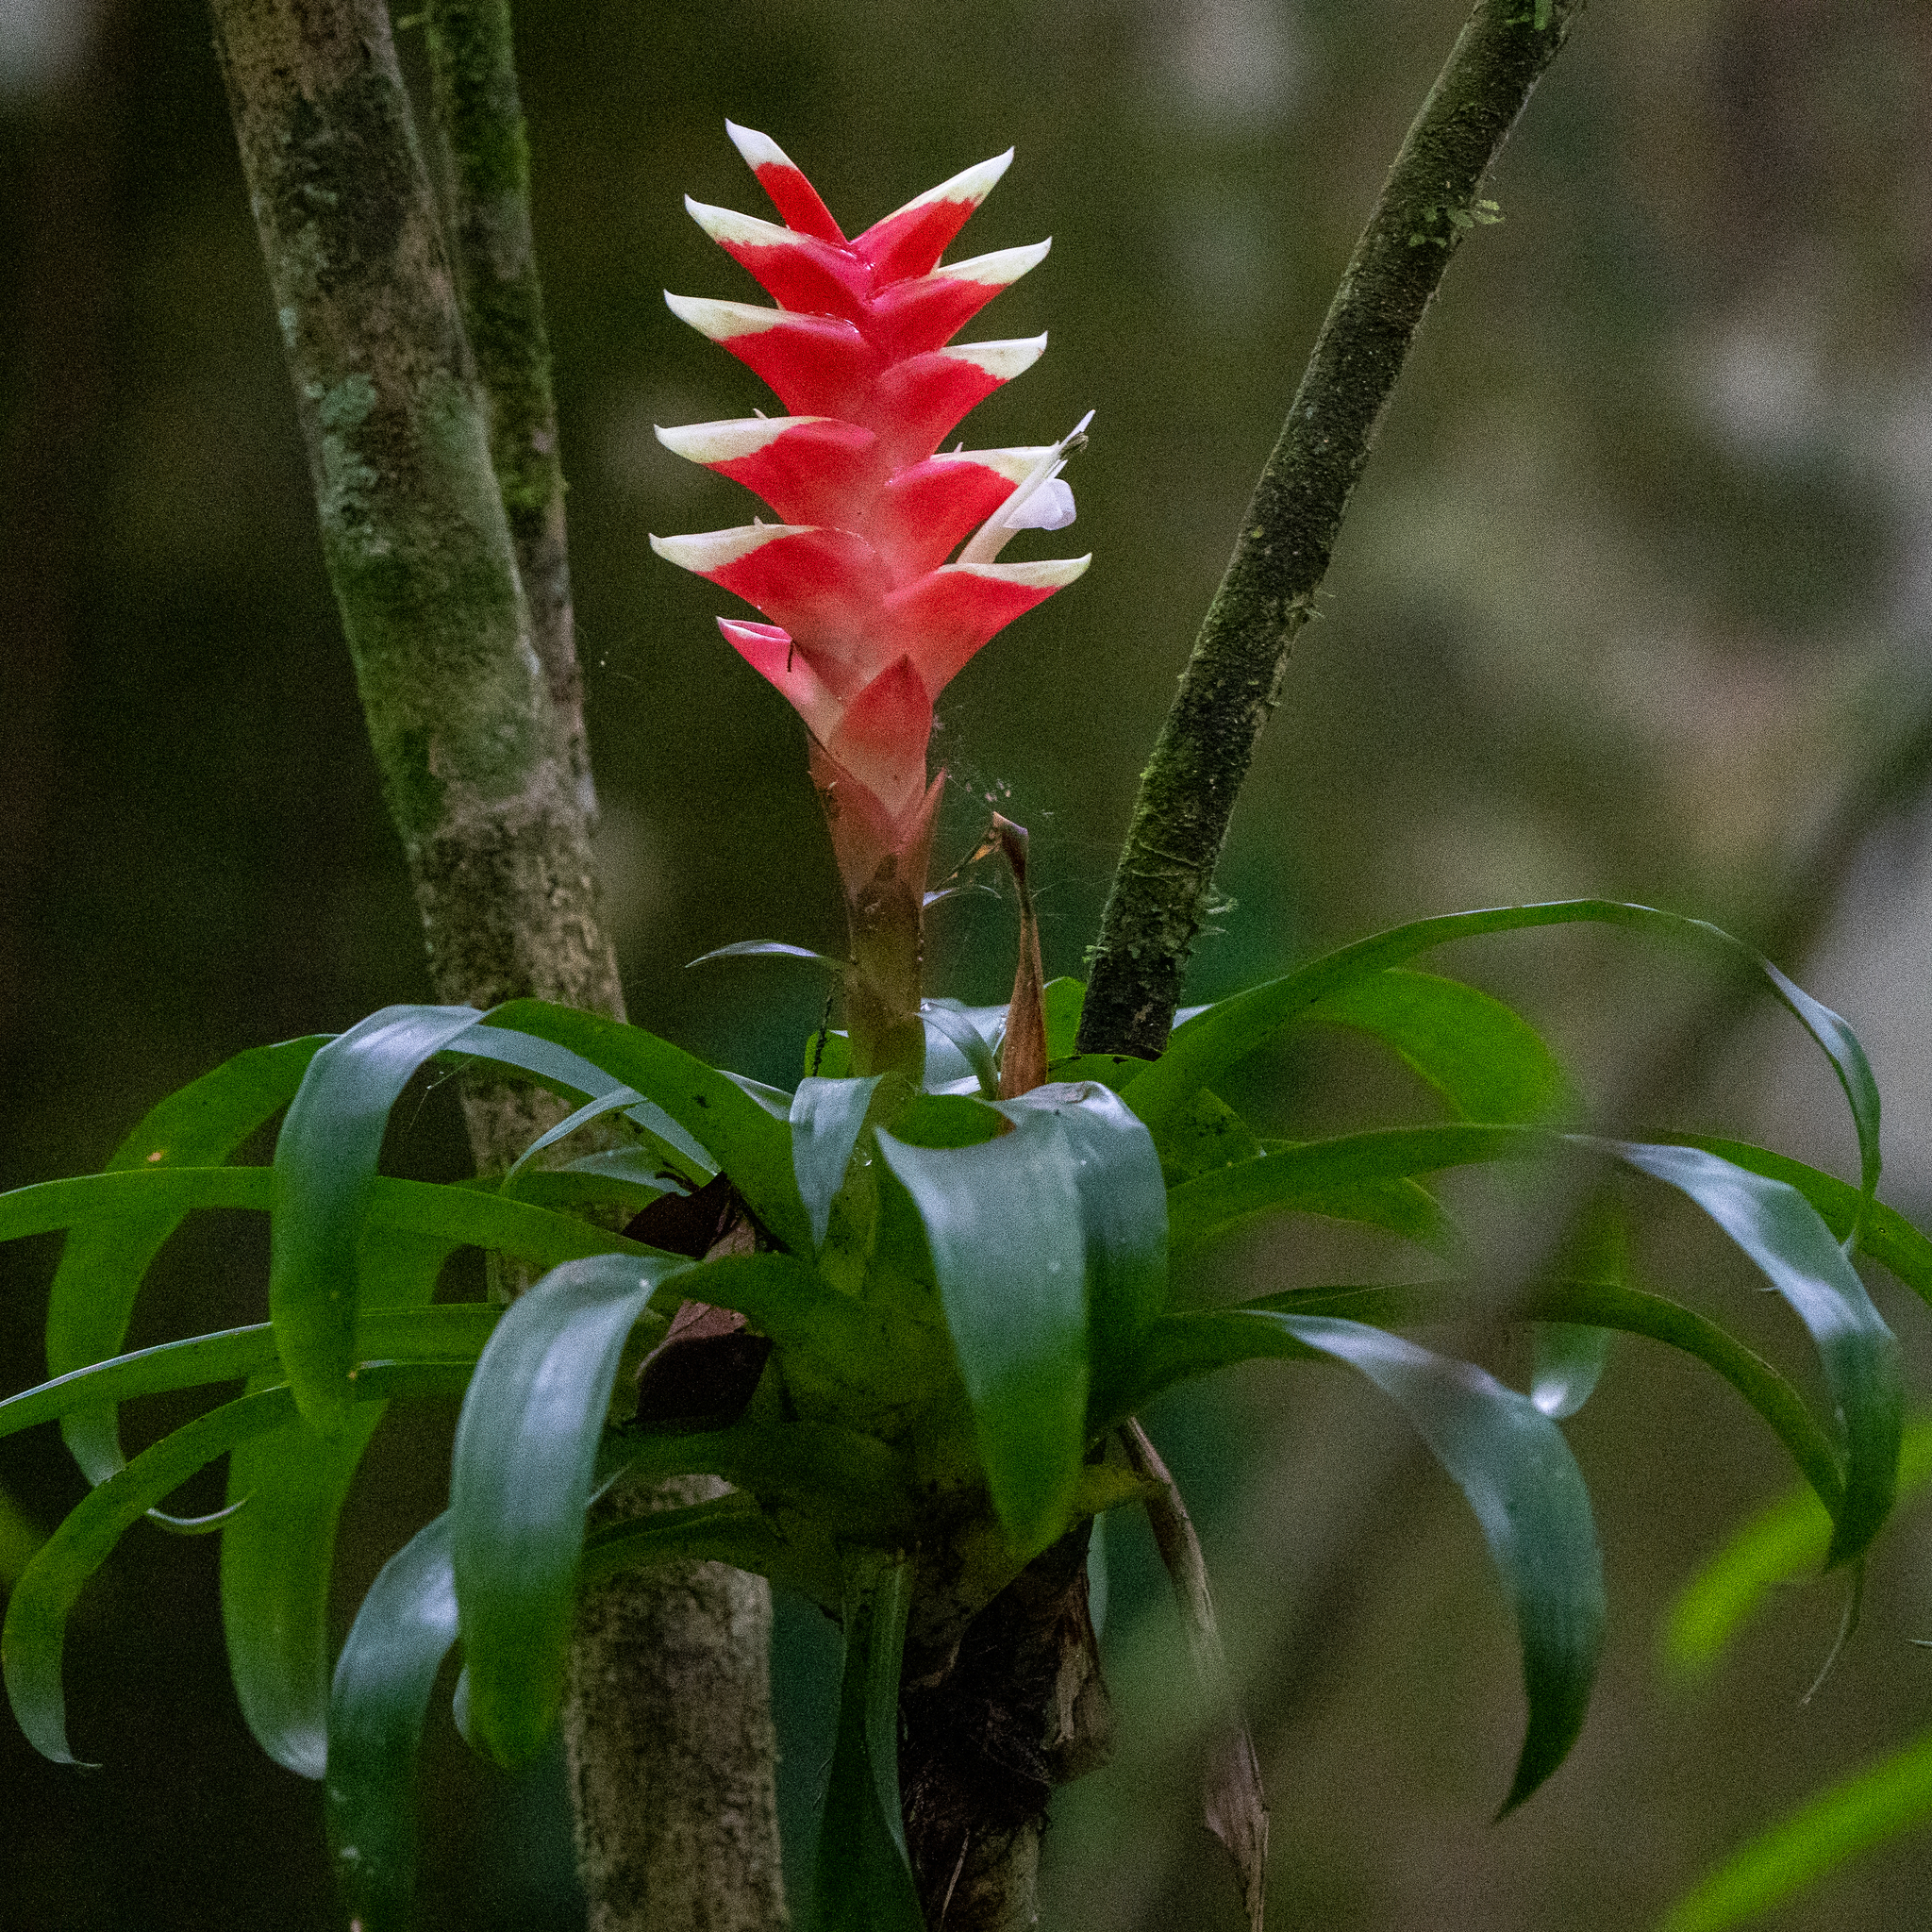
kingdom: Plantae
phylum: Tracheophyta
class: Liliopsida
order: Poales
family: Bromeliaceae
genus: Tillandsia
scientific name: Tillandsia heliconioides
